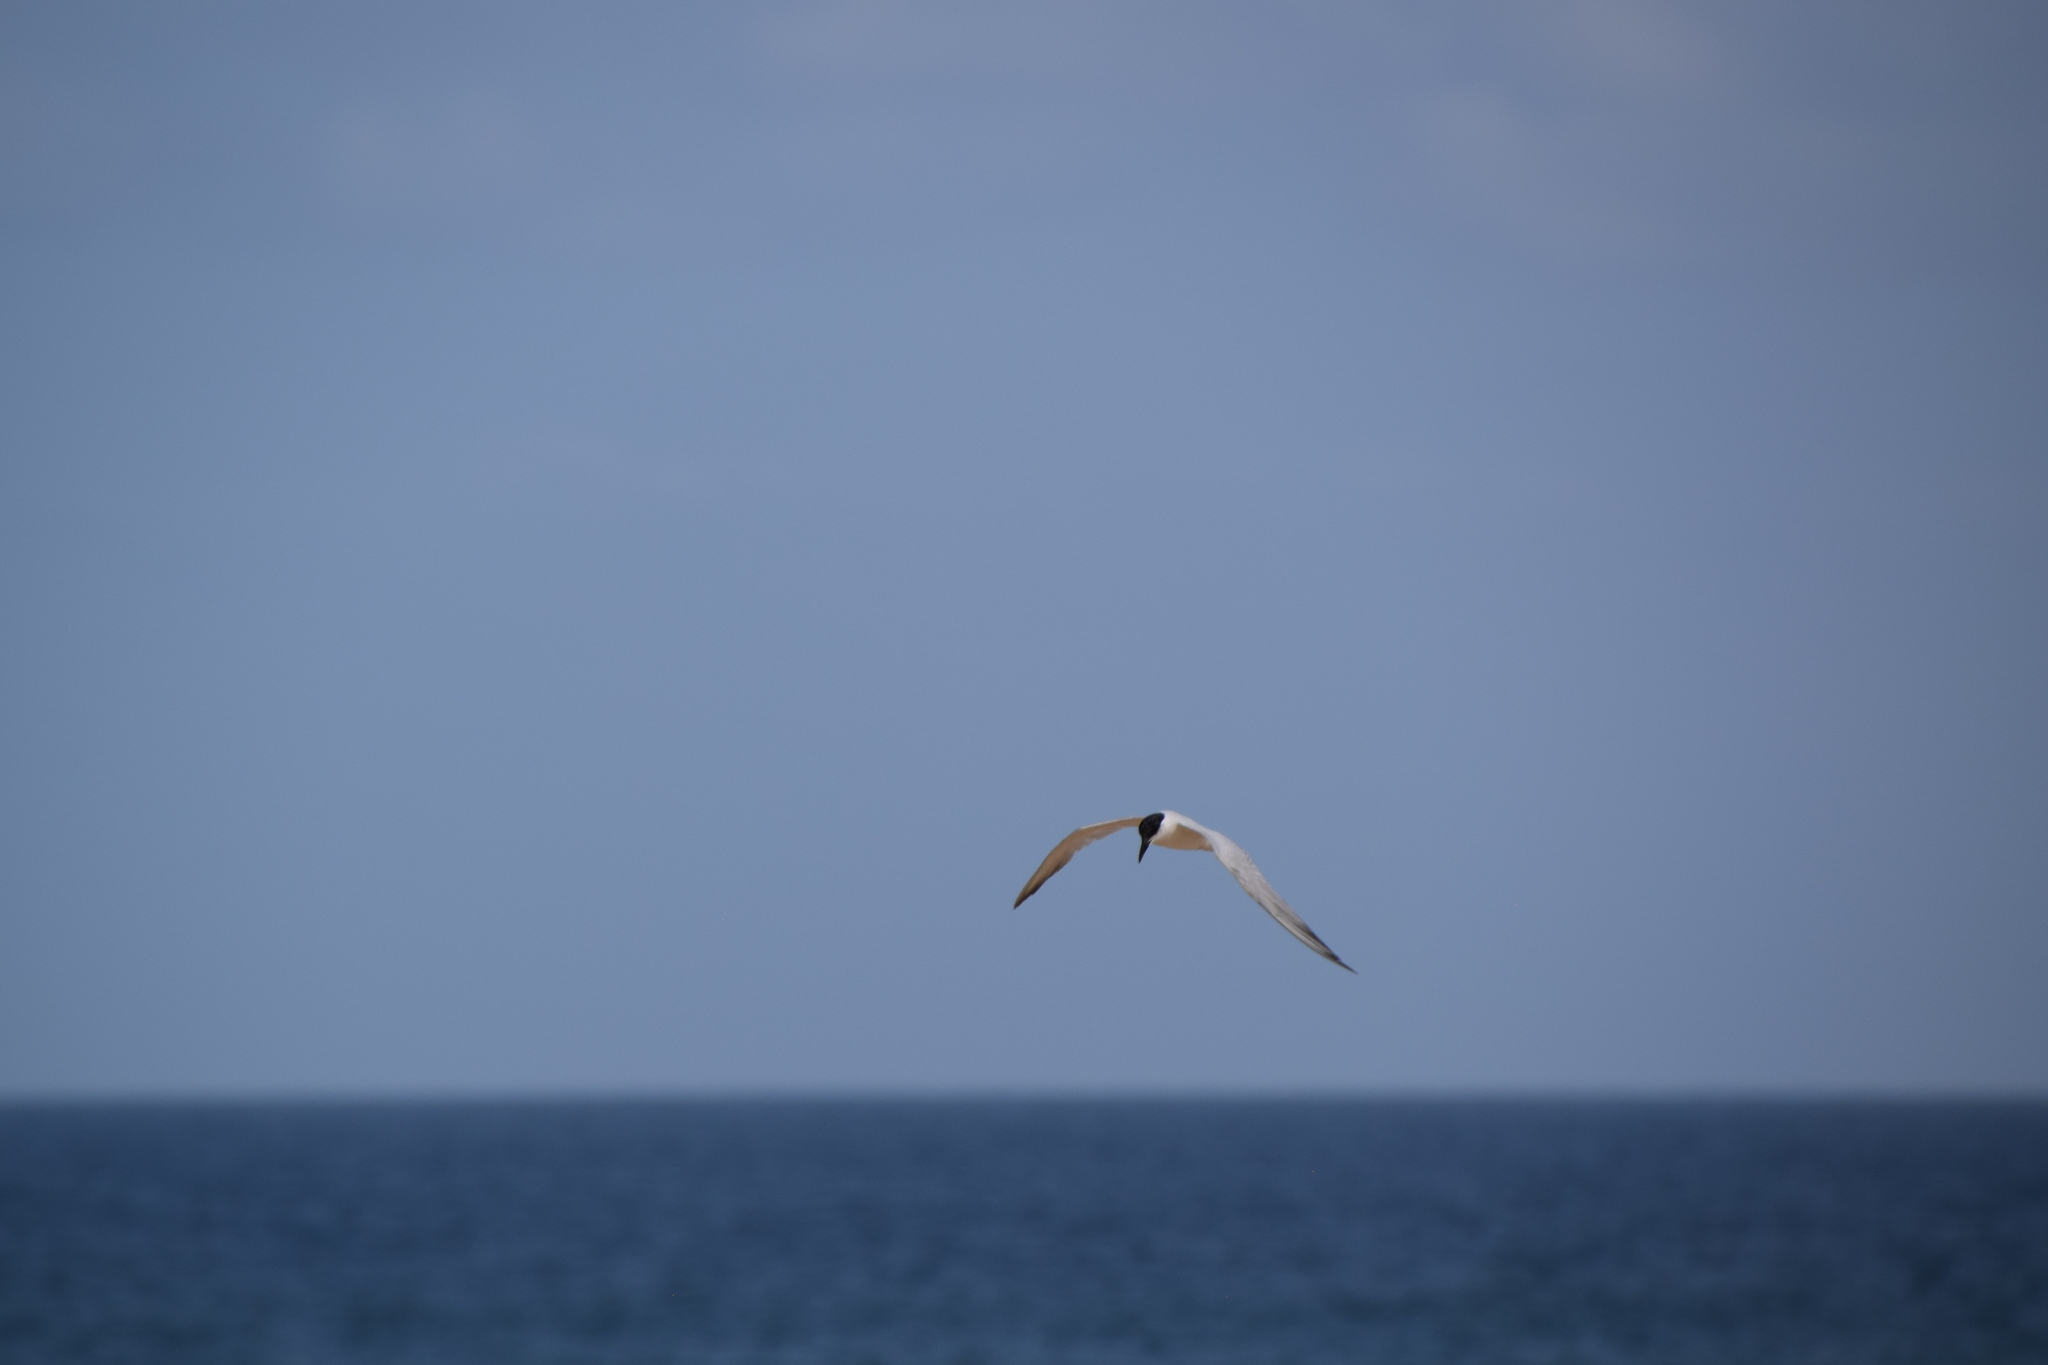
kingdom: Animalia
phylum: Chordata
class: Aves
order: Charadriiformes
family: Laridae
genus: Gelochelidon
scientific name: Gelochelidon macrotarsa
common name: Australian tern
